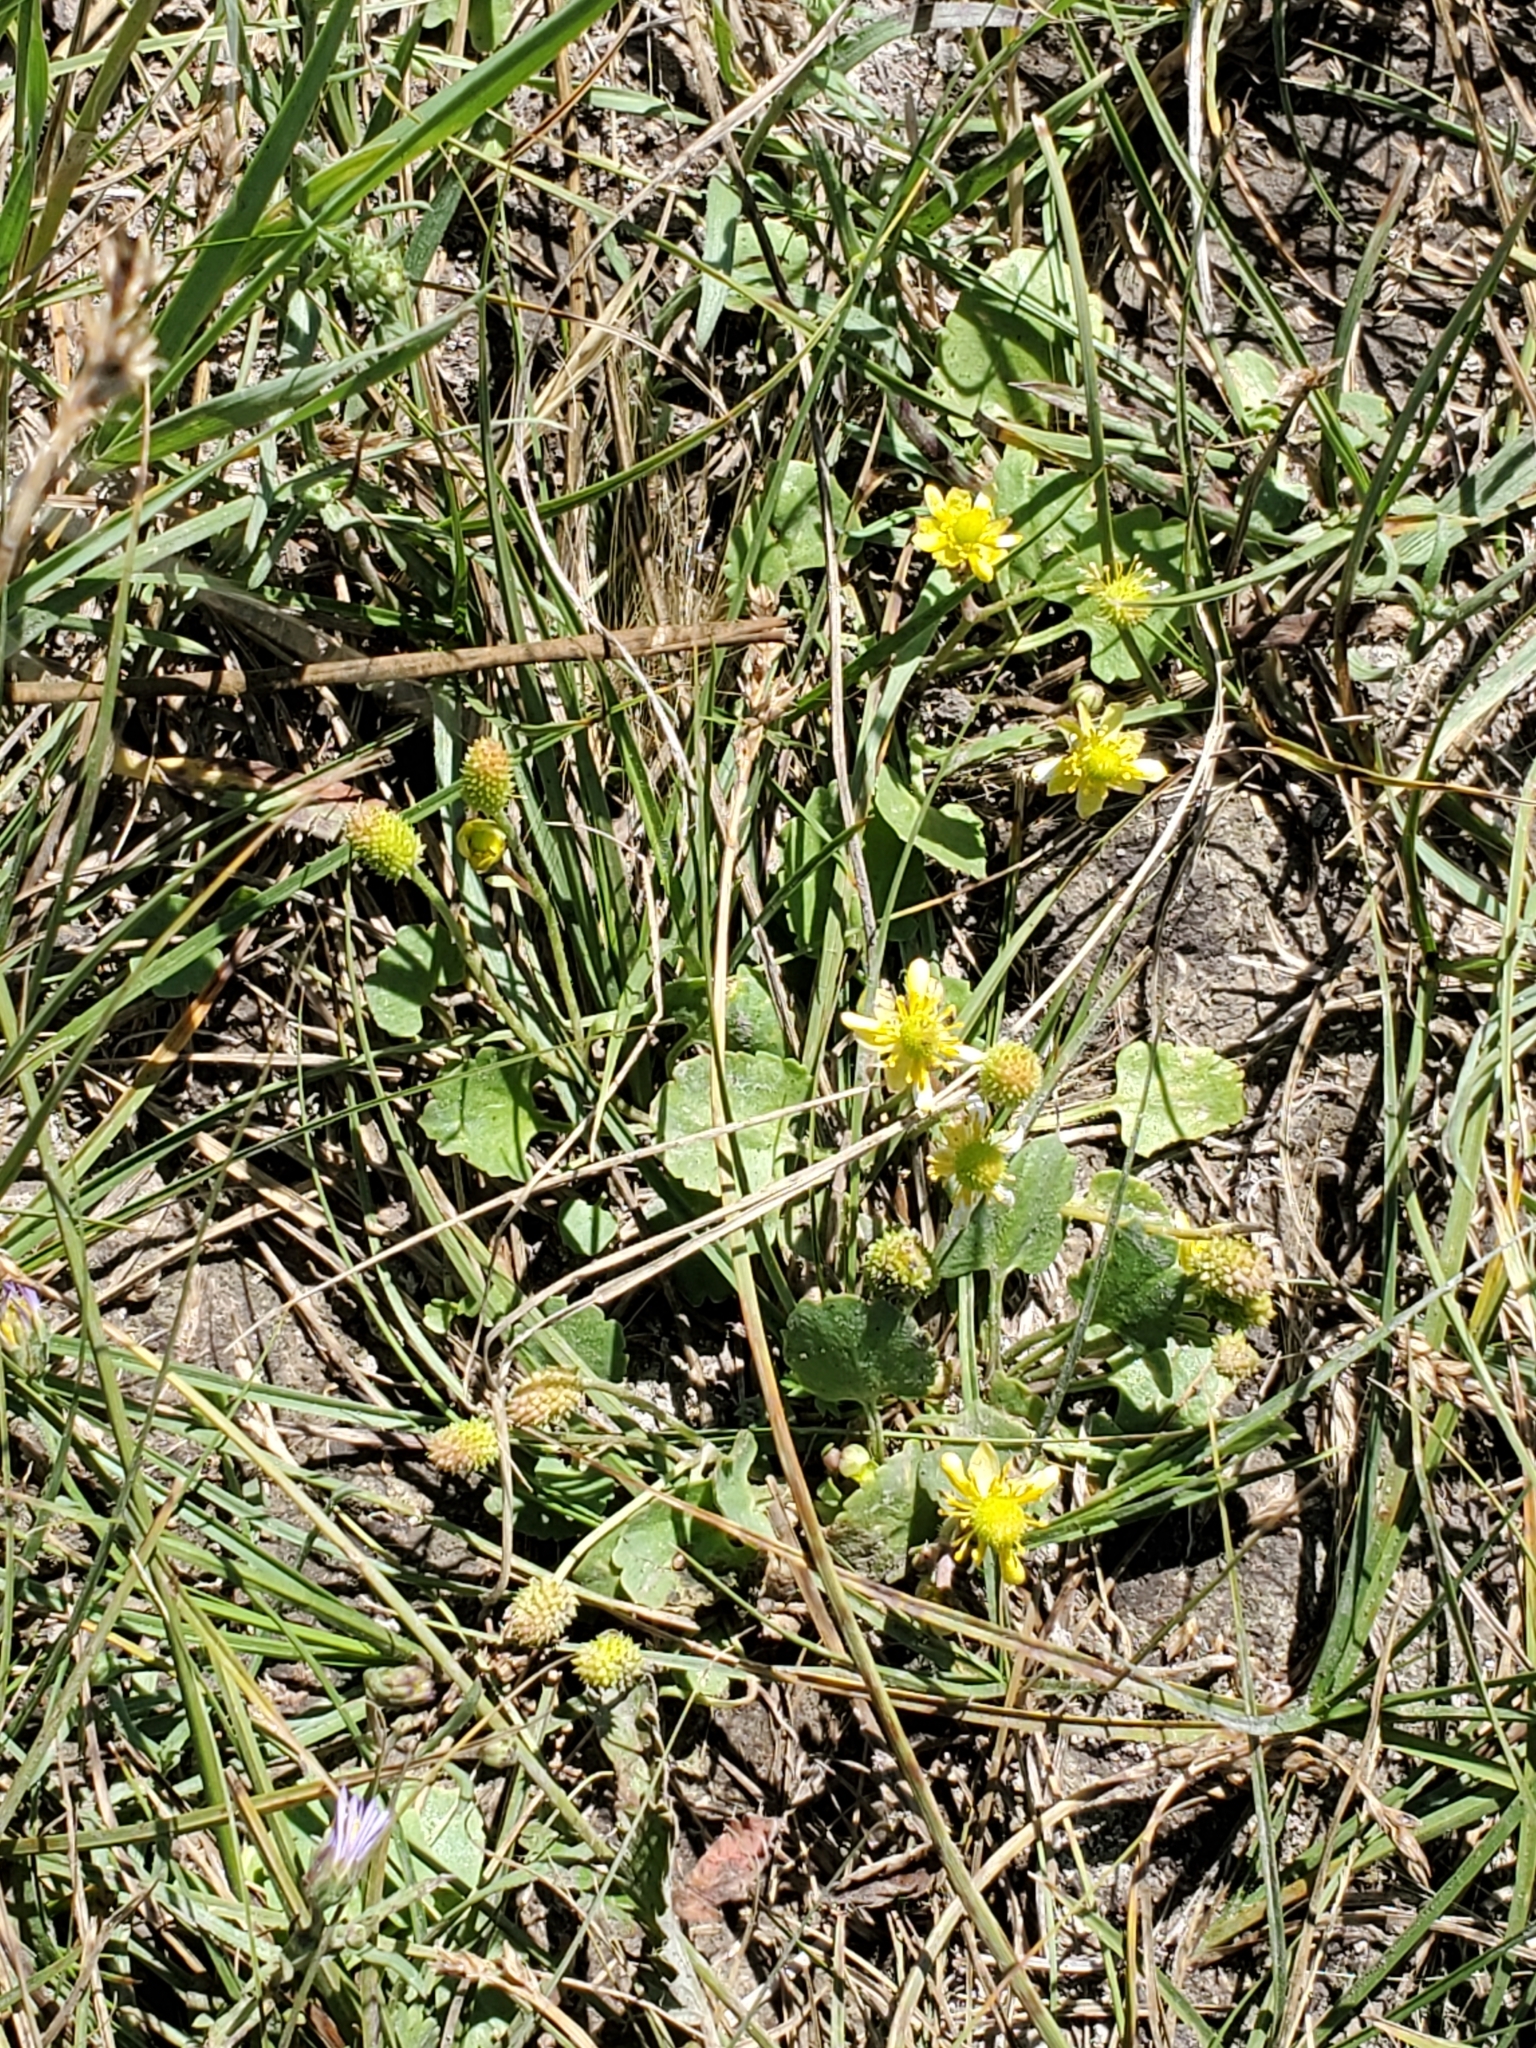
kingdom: Plantae
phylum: Tracheophyta
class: Magnoliopsida
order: Ranunculales
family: Ranunculaceae
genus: Halerpestes
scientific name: Halerpestes cymbalaria
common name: Seaside crowfoot
